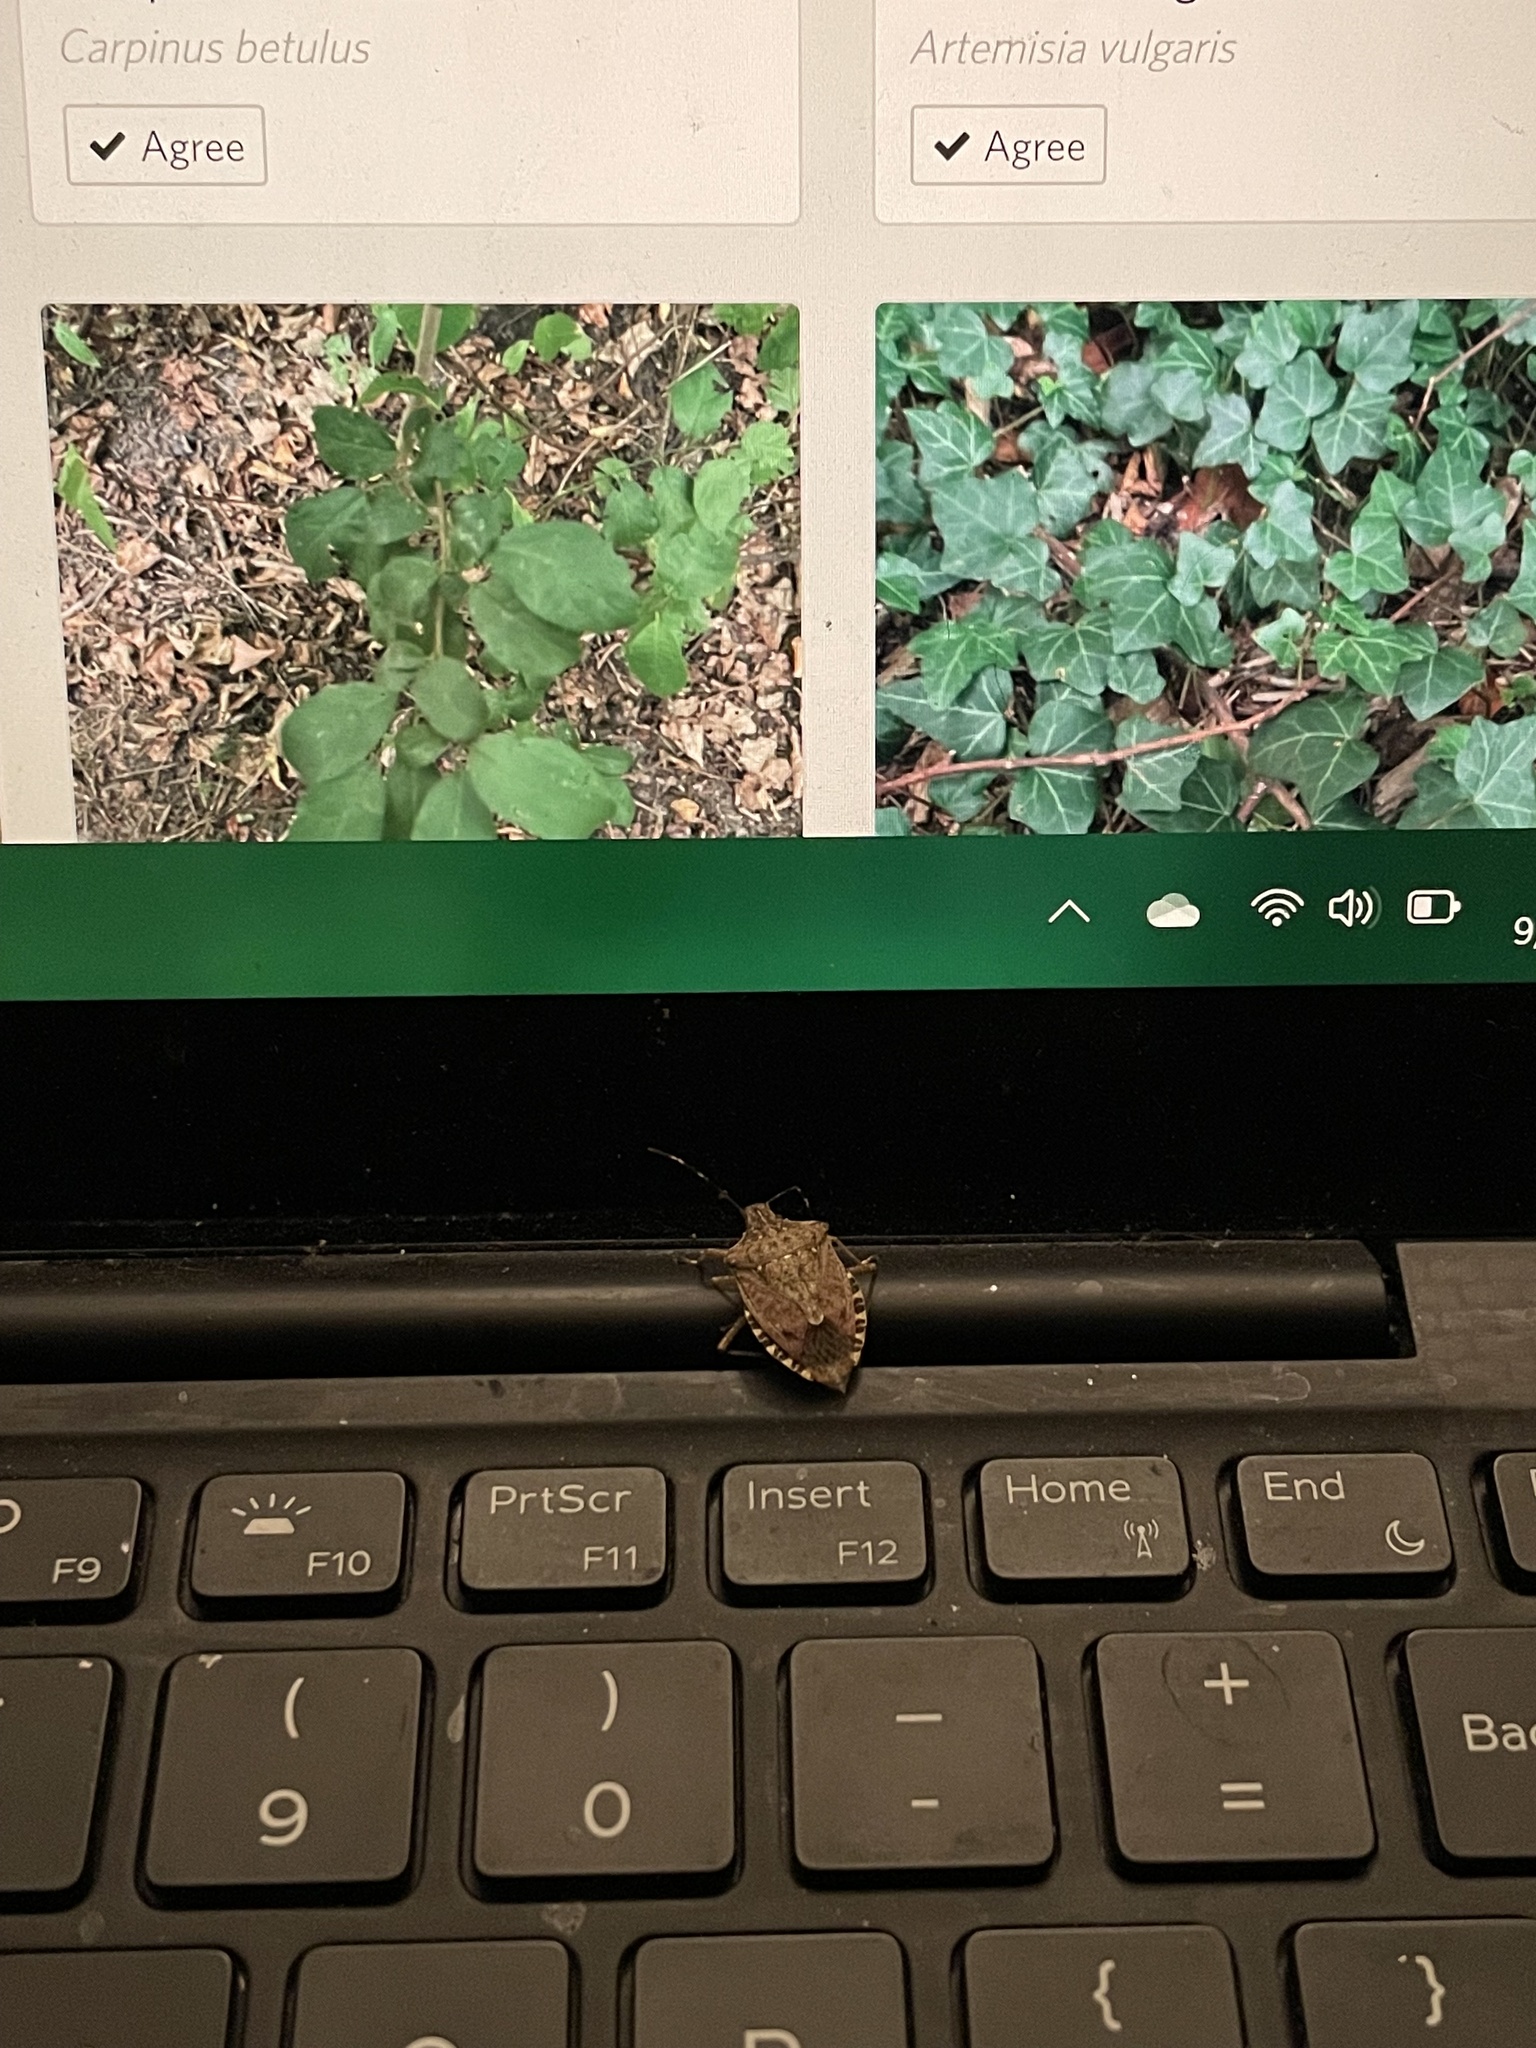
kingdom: Animalia
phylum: Arthropoda
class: Insecta
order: Hemiptera
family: Pentatomidae
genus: Halyomorpha
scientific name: Halyomorpha halys
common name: Brown marmorated stink bug
